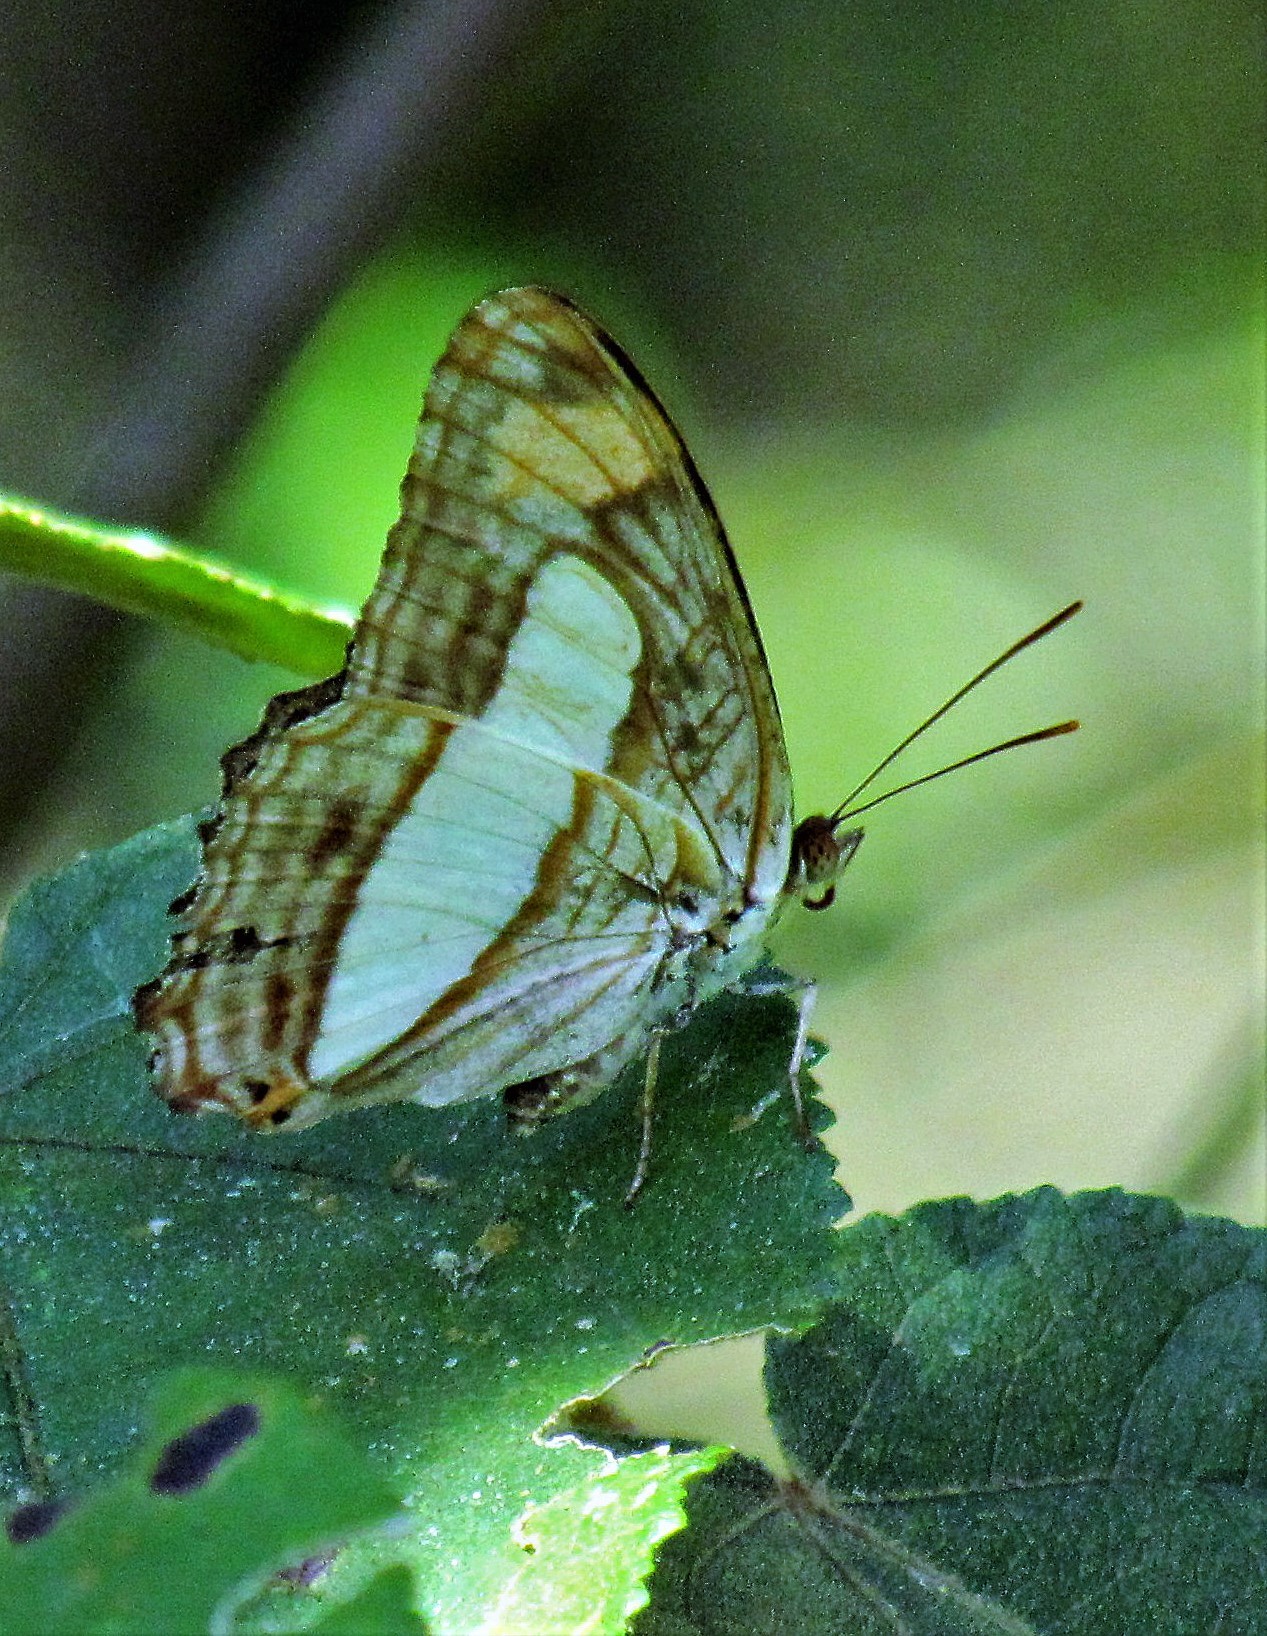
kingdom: Animalia
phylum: Arthropoda
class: Insecta
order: Lepidoptera
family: Nymphalidae
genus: Limenitis
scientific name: Limenitis iphiclus
